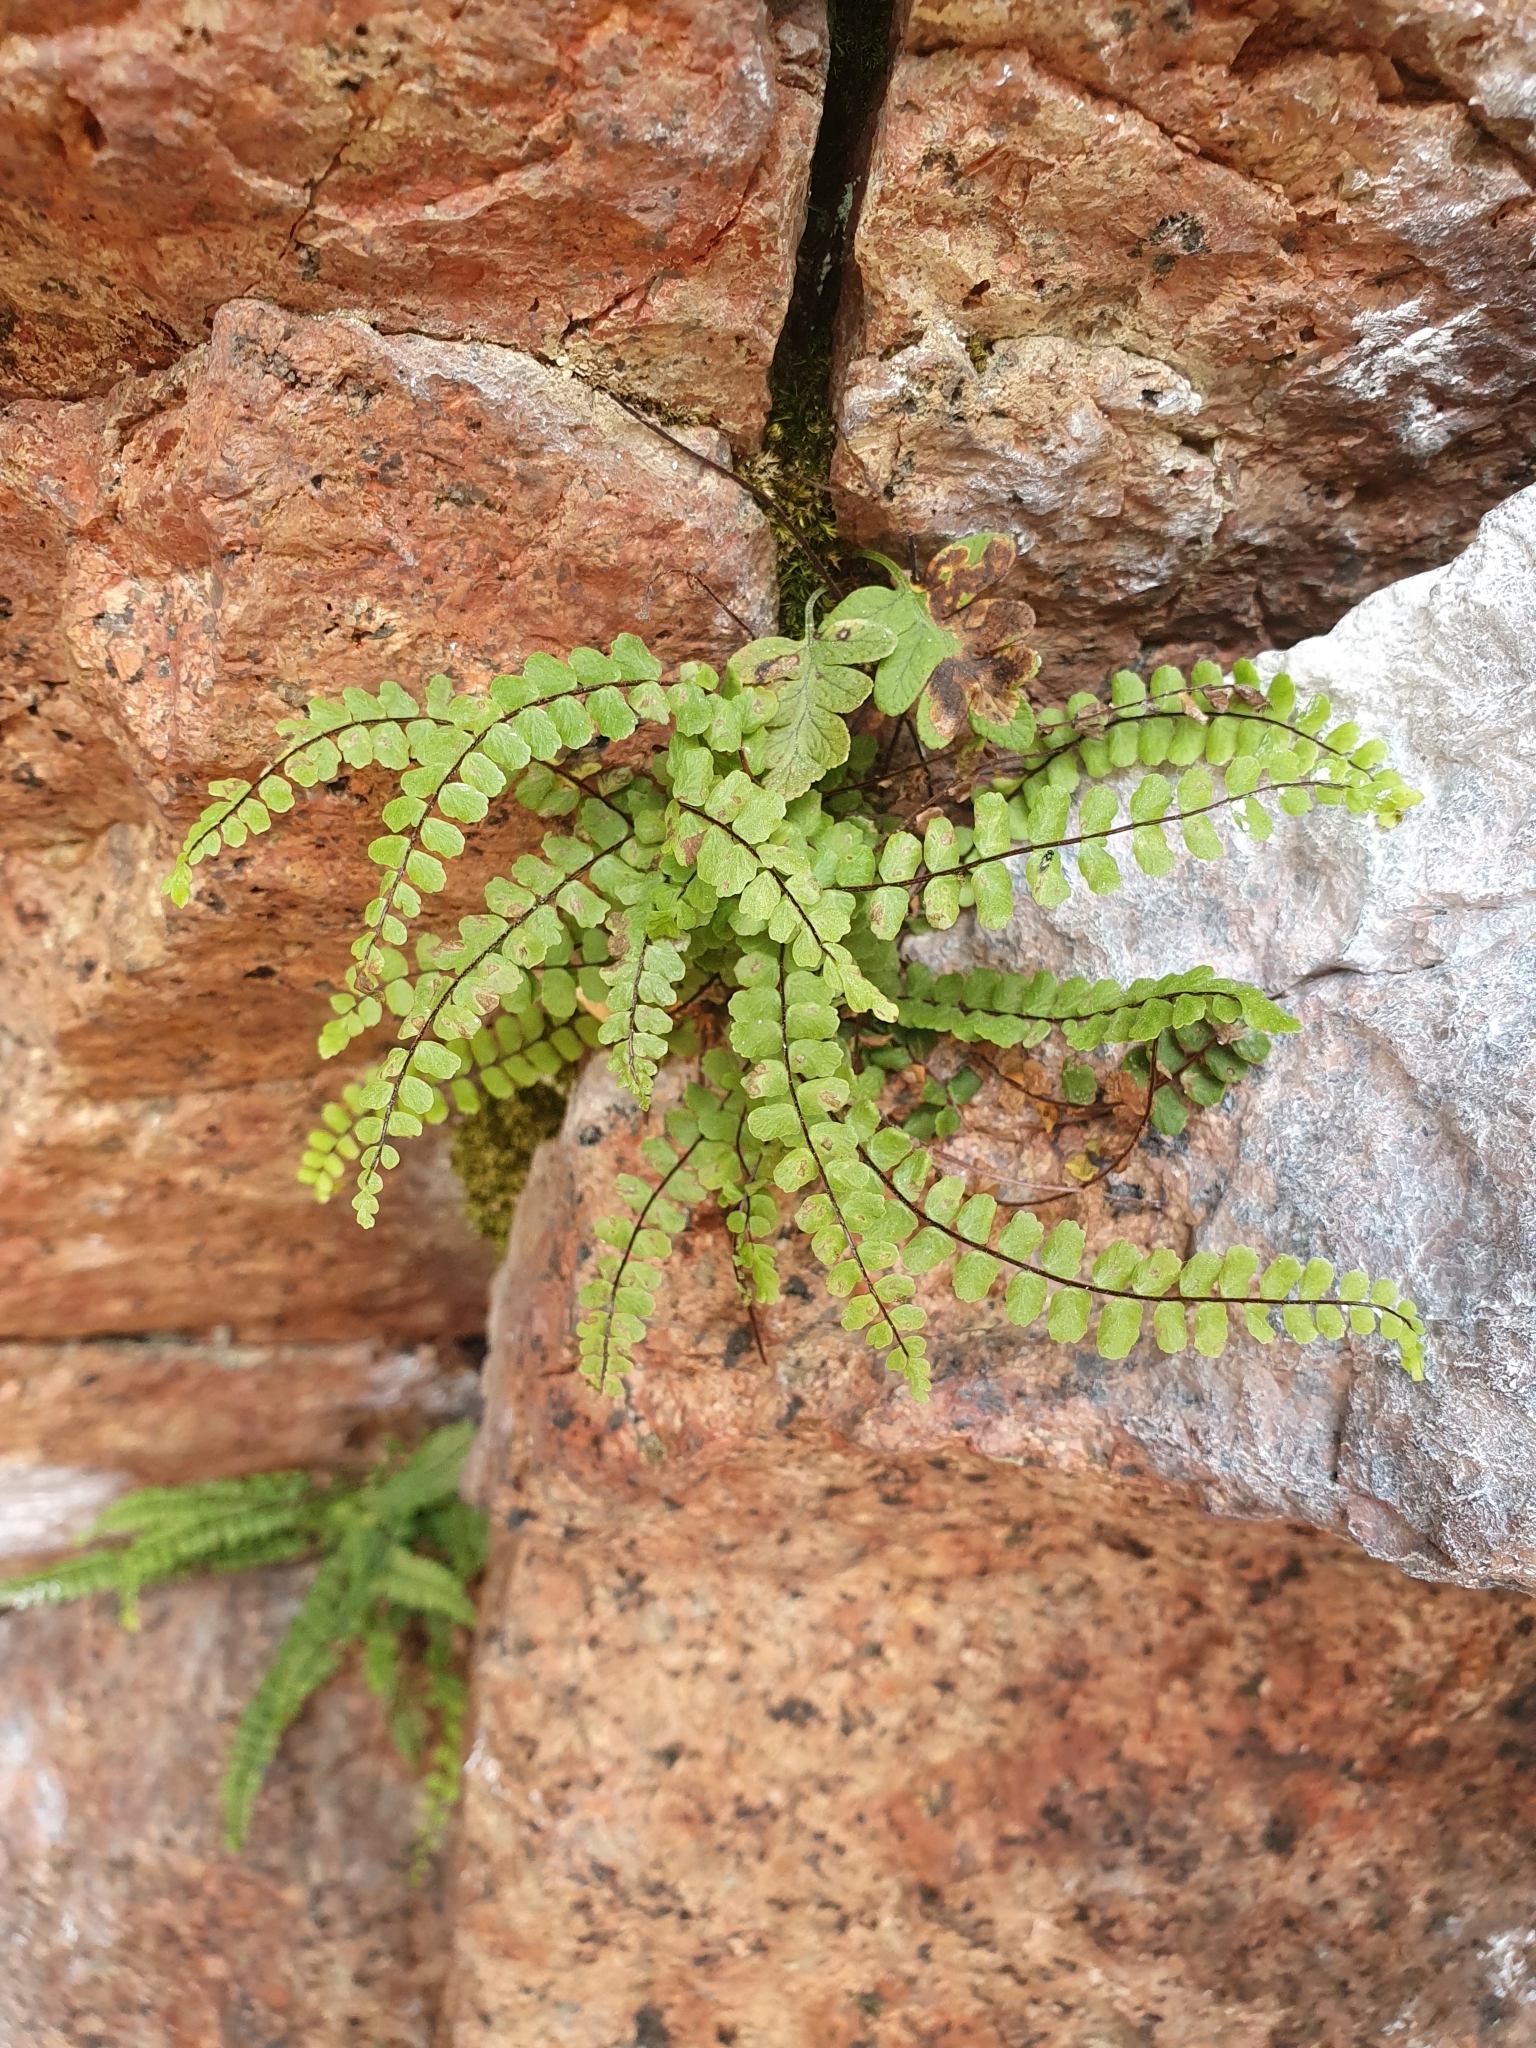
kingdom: Plantae
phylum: Tracheophyta
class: Polypodiopsida
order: Polypodiales
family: Aspleniaceae
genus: Asplenium
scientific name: Asplenium trichomanes
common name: Maidenhair spleenwort
